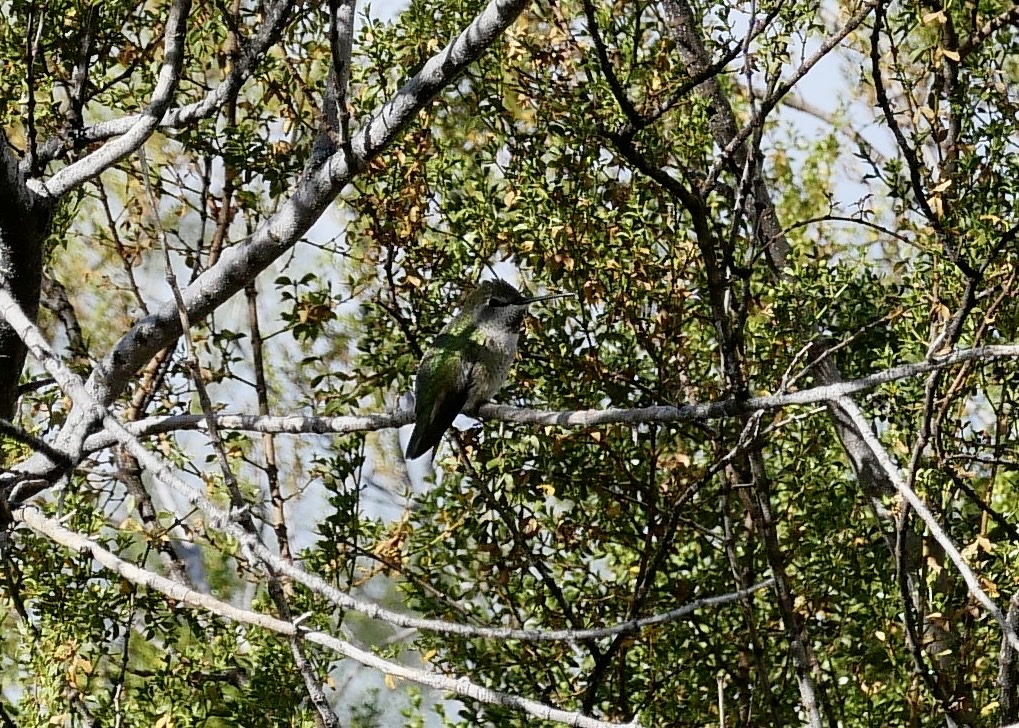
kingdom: Animalia
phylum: Chordata
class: Aves
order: Apodiformes
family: Trochilidae
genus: Calypte
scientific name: Calypte anna
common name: Anna's hummingbird
